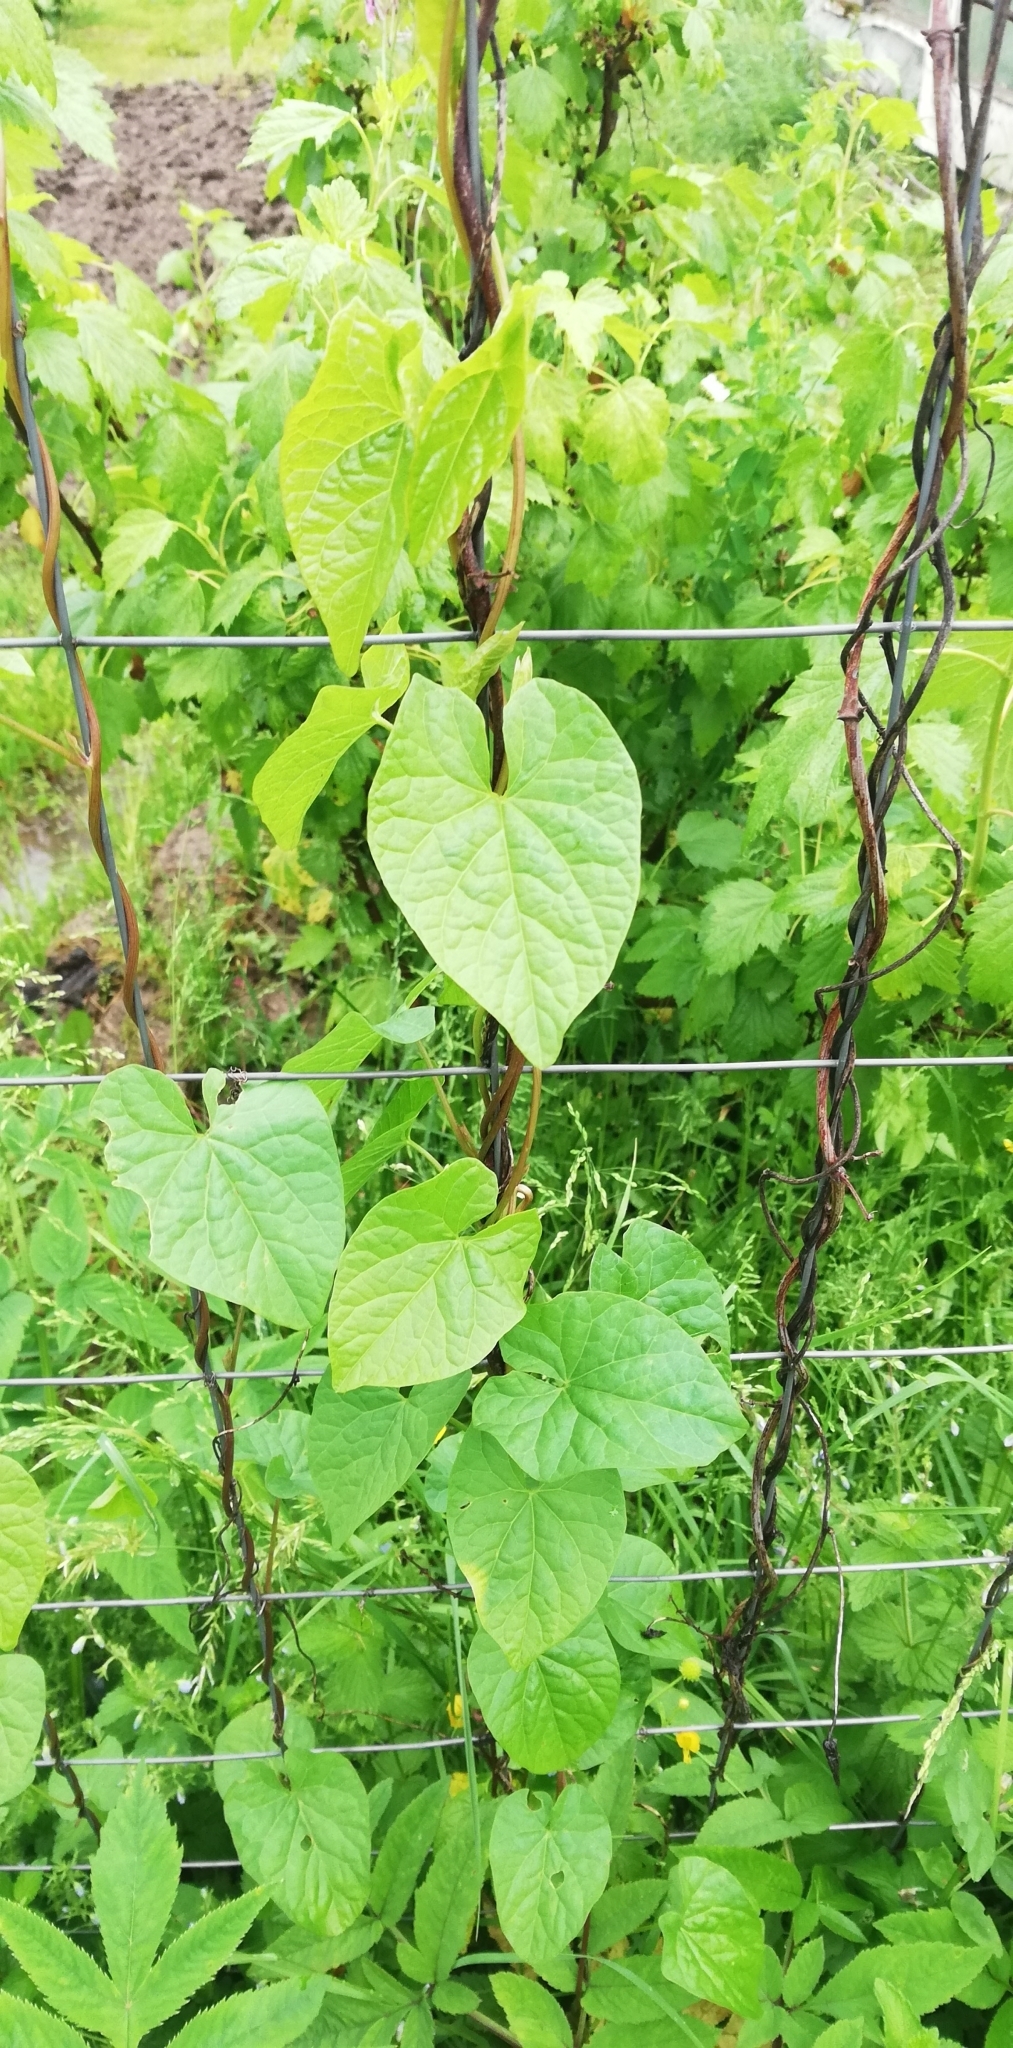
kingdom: Plantae
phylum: Tracheophyta
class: Magnoliopsida
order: Solanales
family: Convolvulaceae
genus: Calystegia
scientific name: Calystegia
